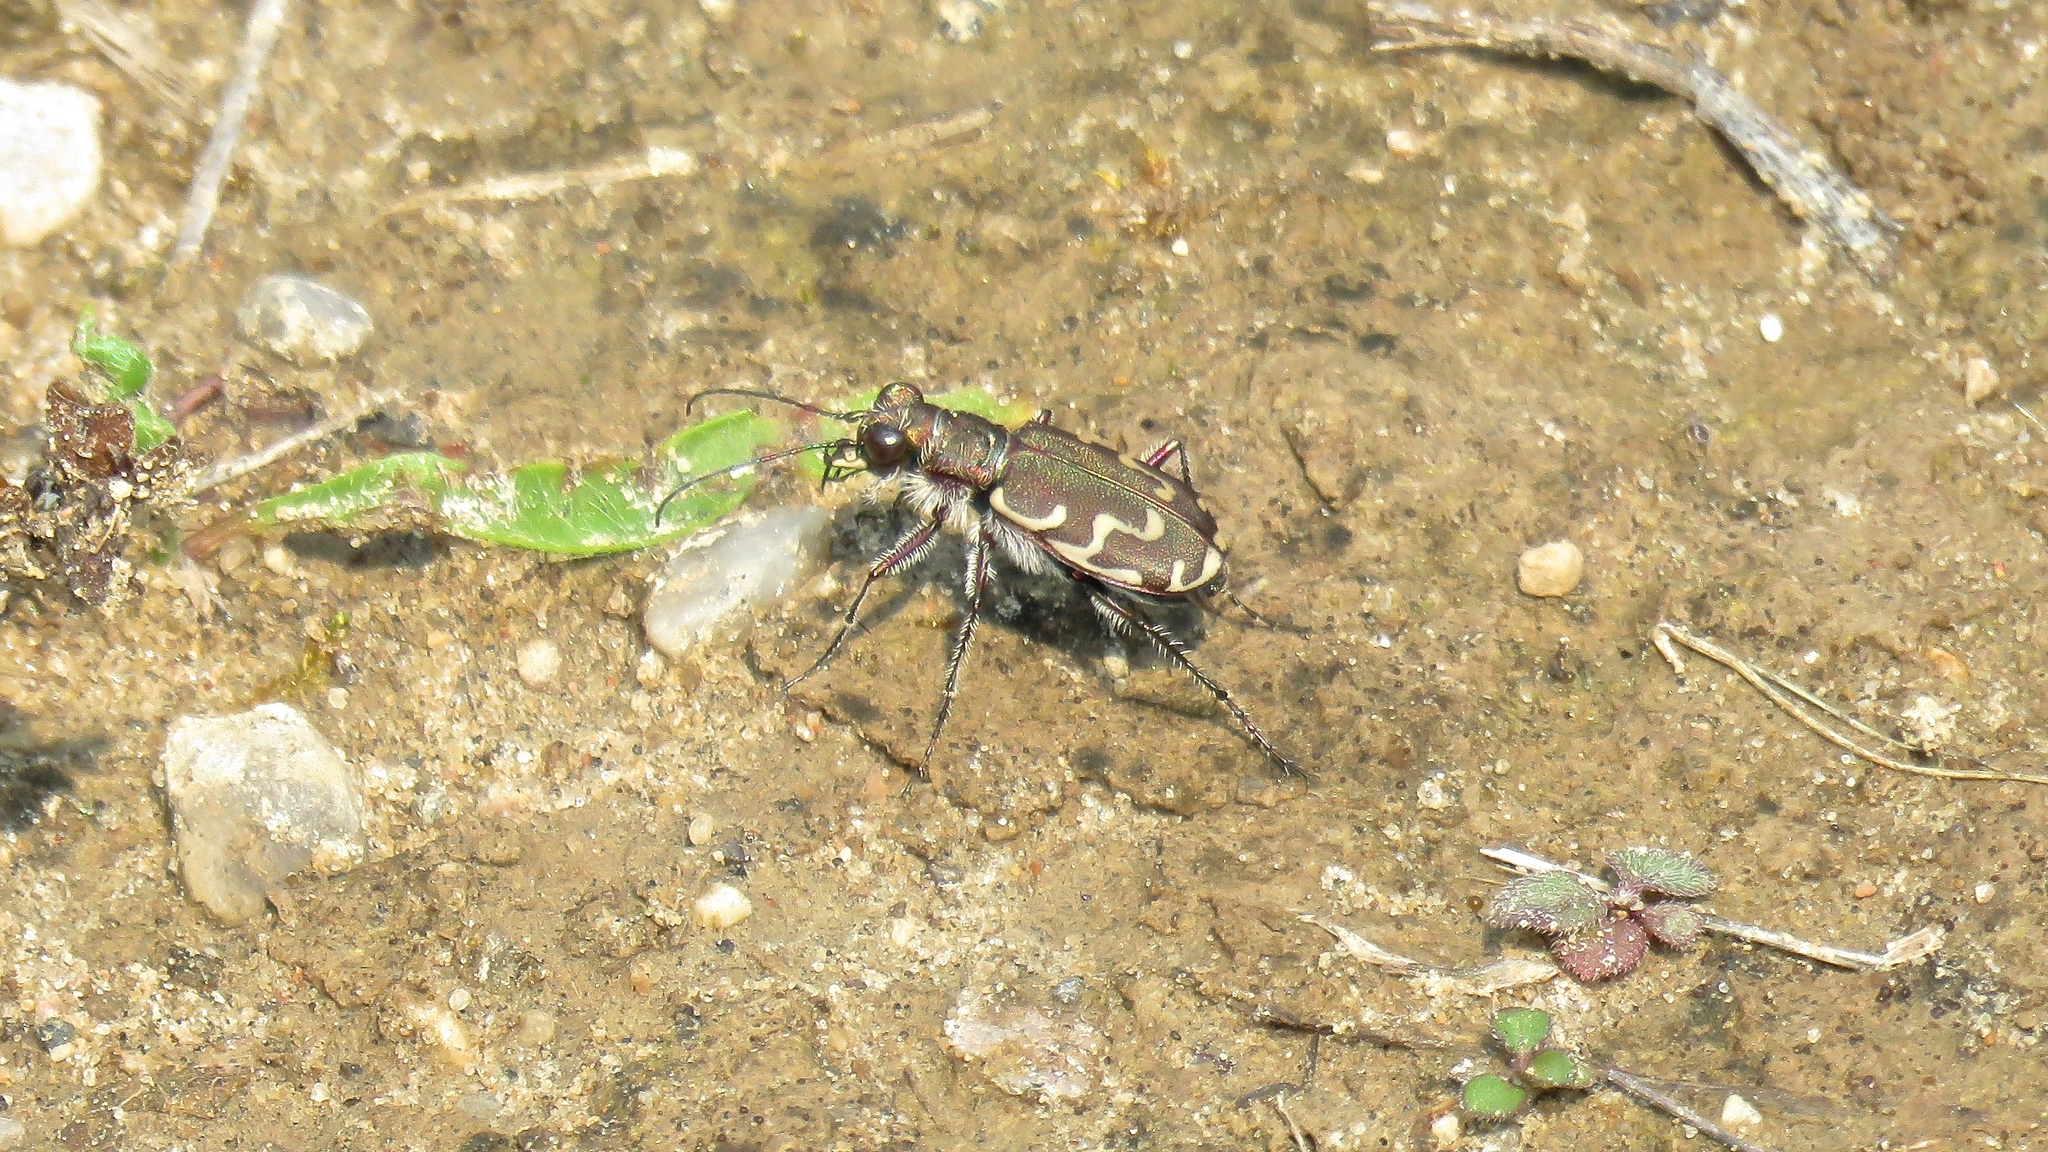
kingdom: Animalia
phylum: Arthropoda
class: Insecta
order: Coleoptera
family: Carabidae
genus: Cicindela
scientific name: Cicindela repanda
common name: Bronzed tiger beetle
